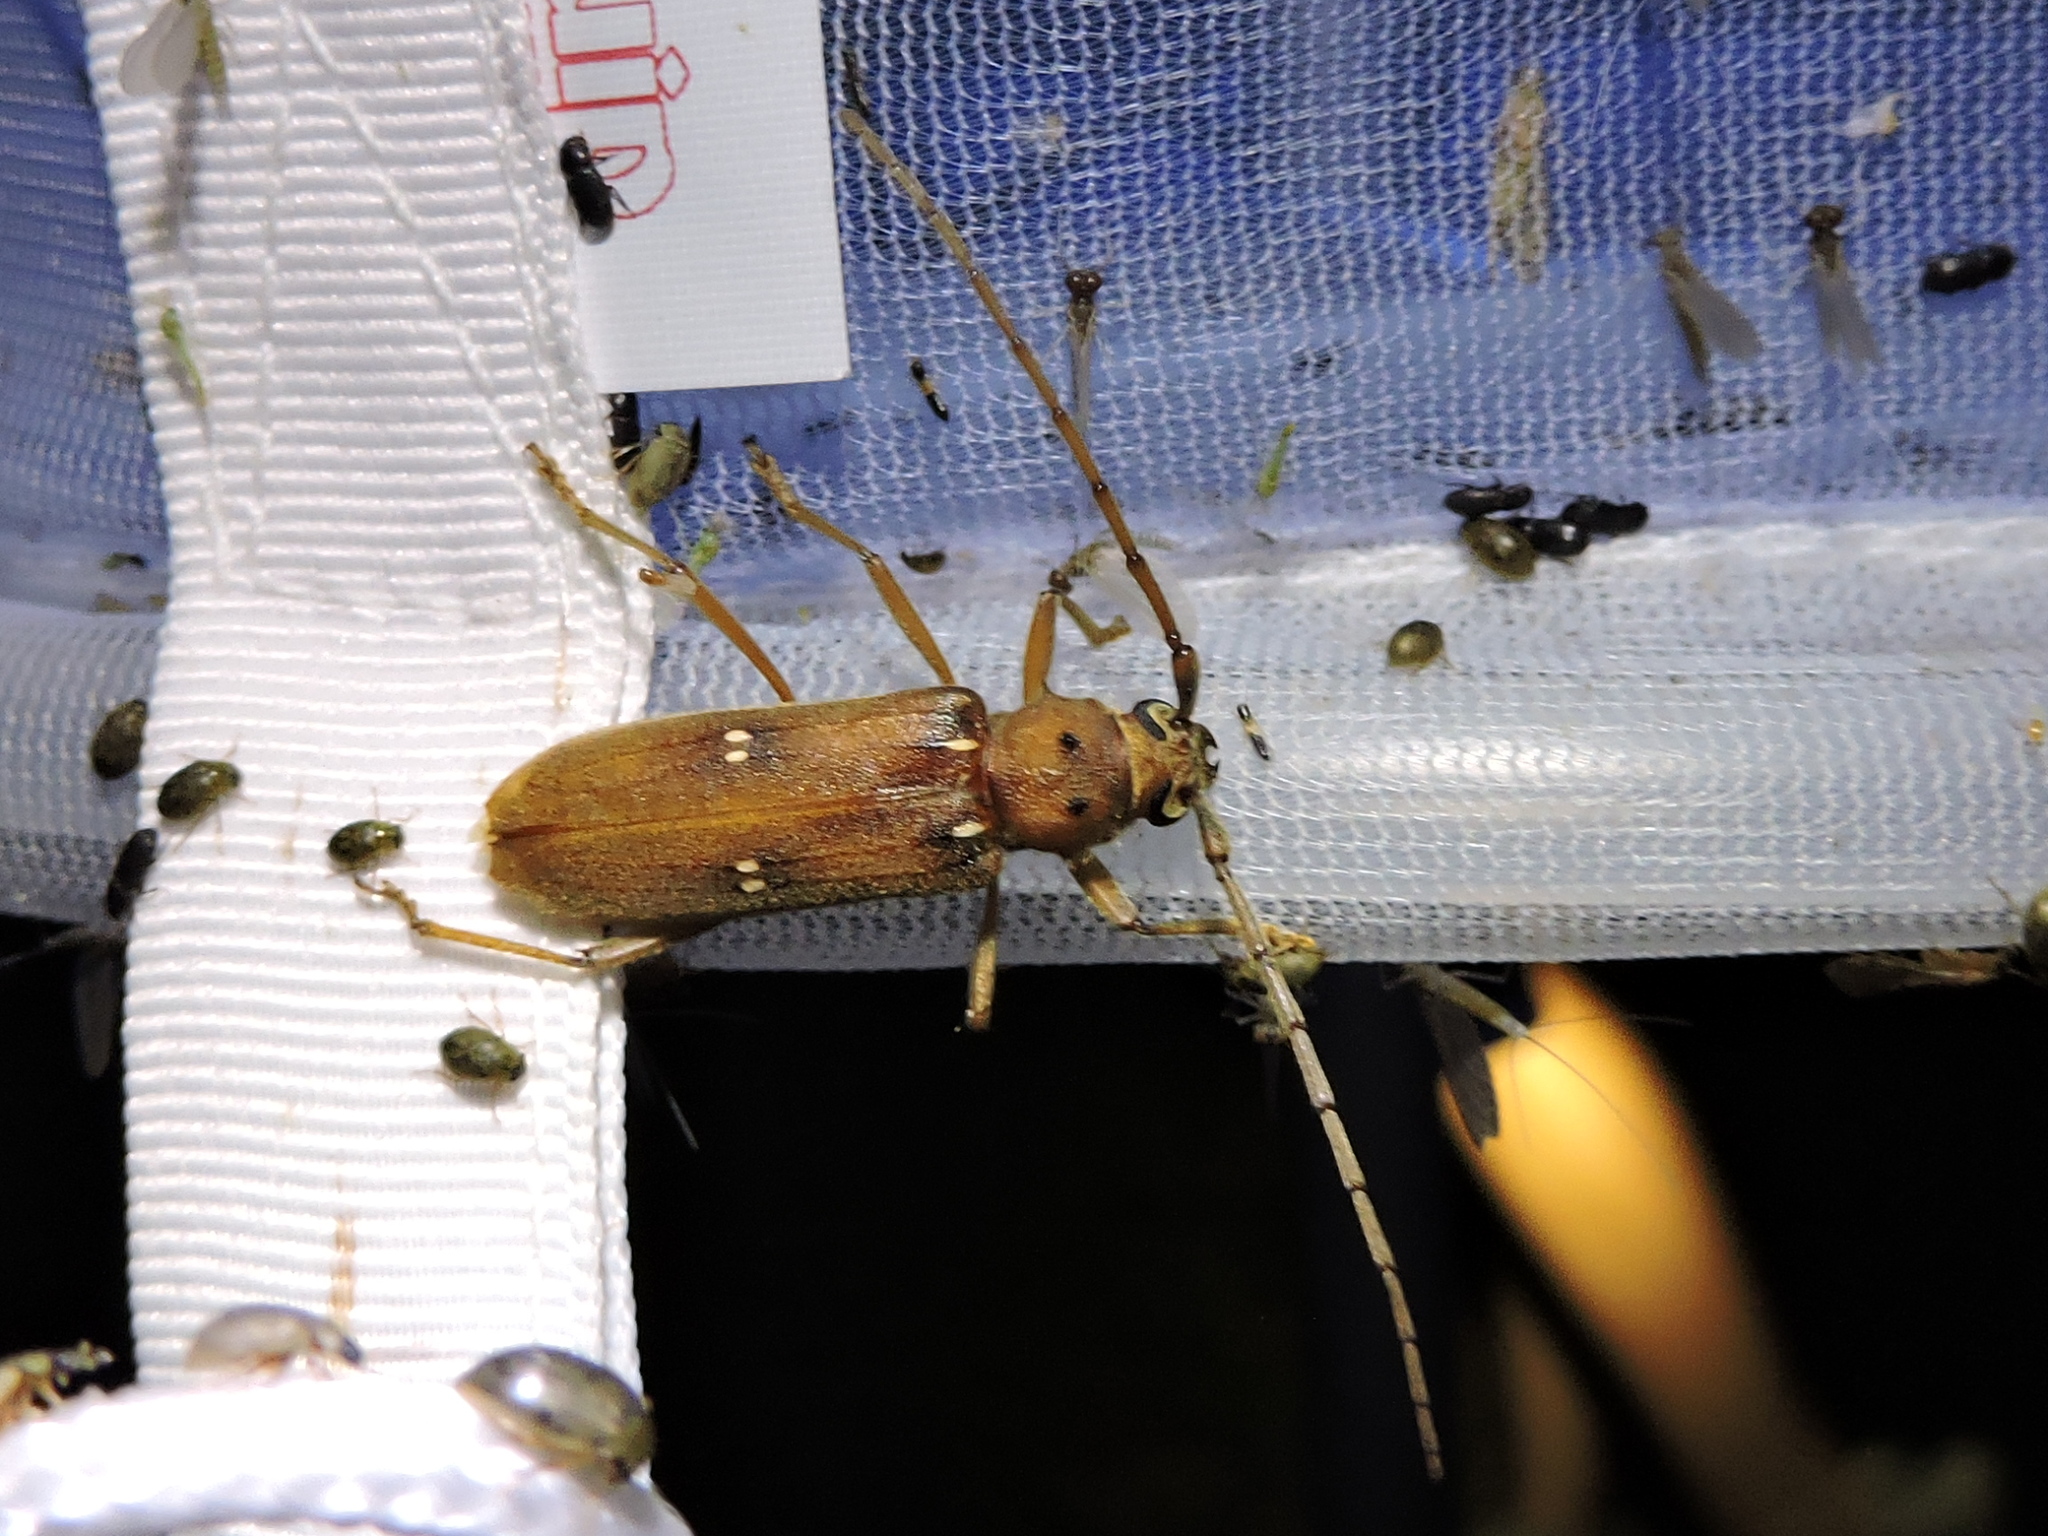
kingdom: Animalia
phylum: Arthropoda
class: Insecta
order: Coleoptera
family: Cerambycidae
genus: Eburia
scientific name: Eburia haldemani
